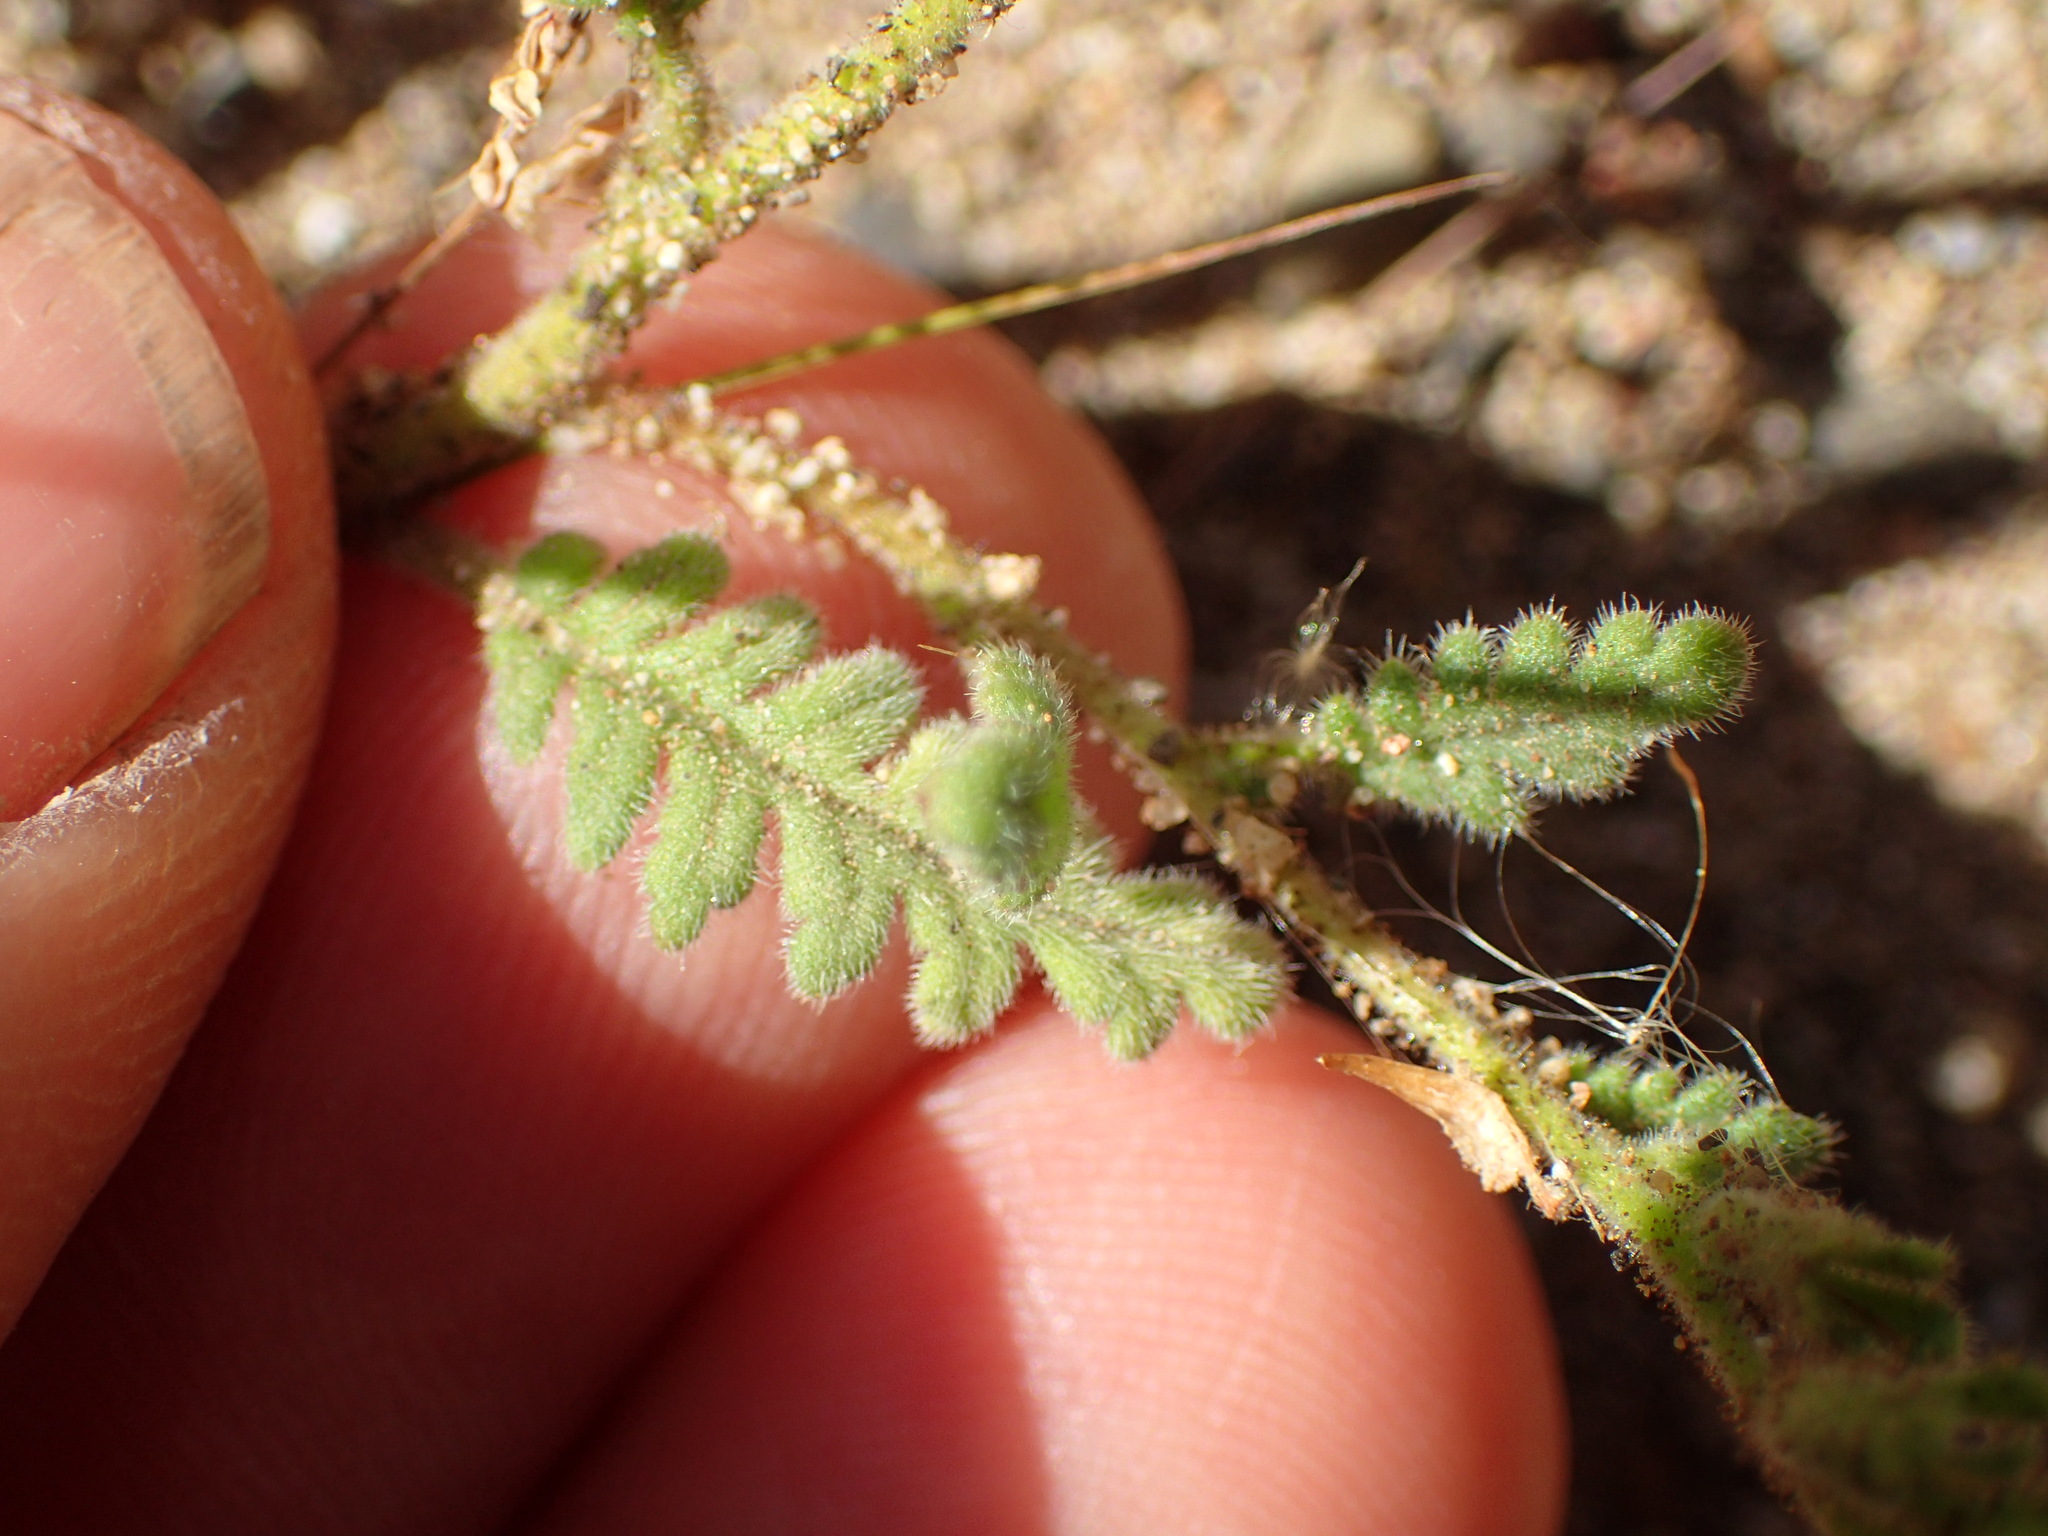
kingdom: Plantae
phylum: Tracheophyta
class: Magnoliopsida
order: Boraginales
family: Hydrophyllaceae
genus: Phacelia
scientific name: Phacelia brachyloba
